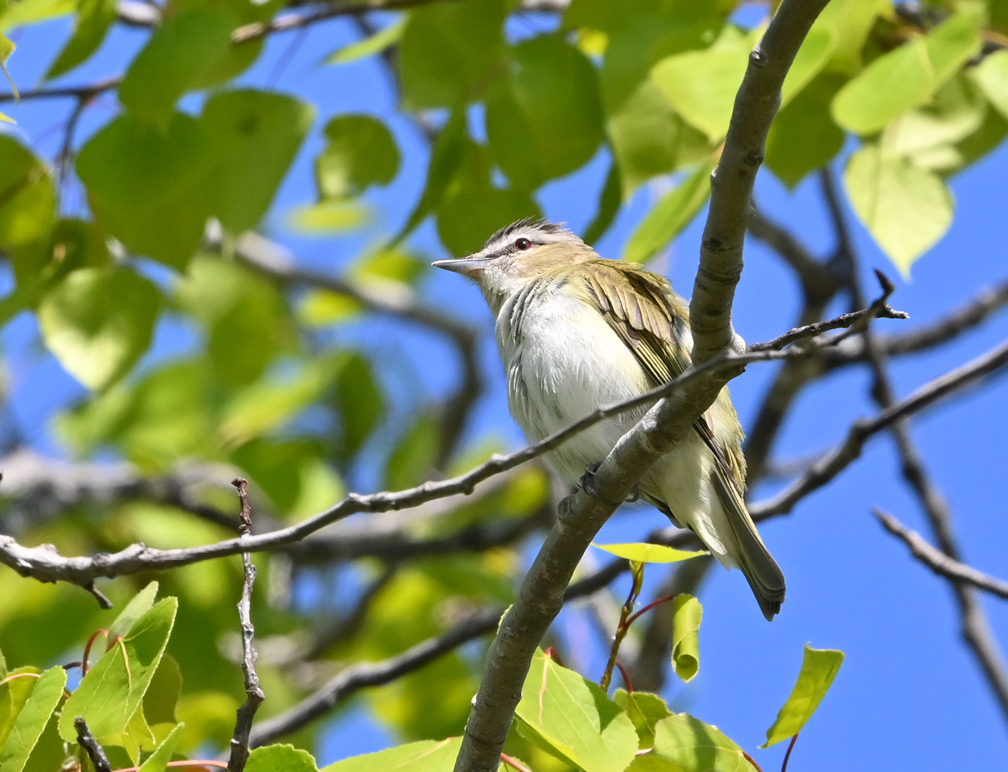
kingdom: Animalia
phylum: Chordata
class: Aves
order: Passeriformes
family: Vireonidae
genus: Vireo
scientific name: Vireo olivaceus
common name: Red-eyed vireo
